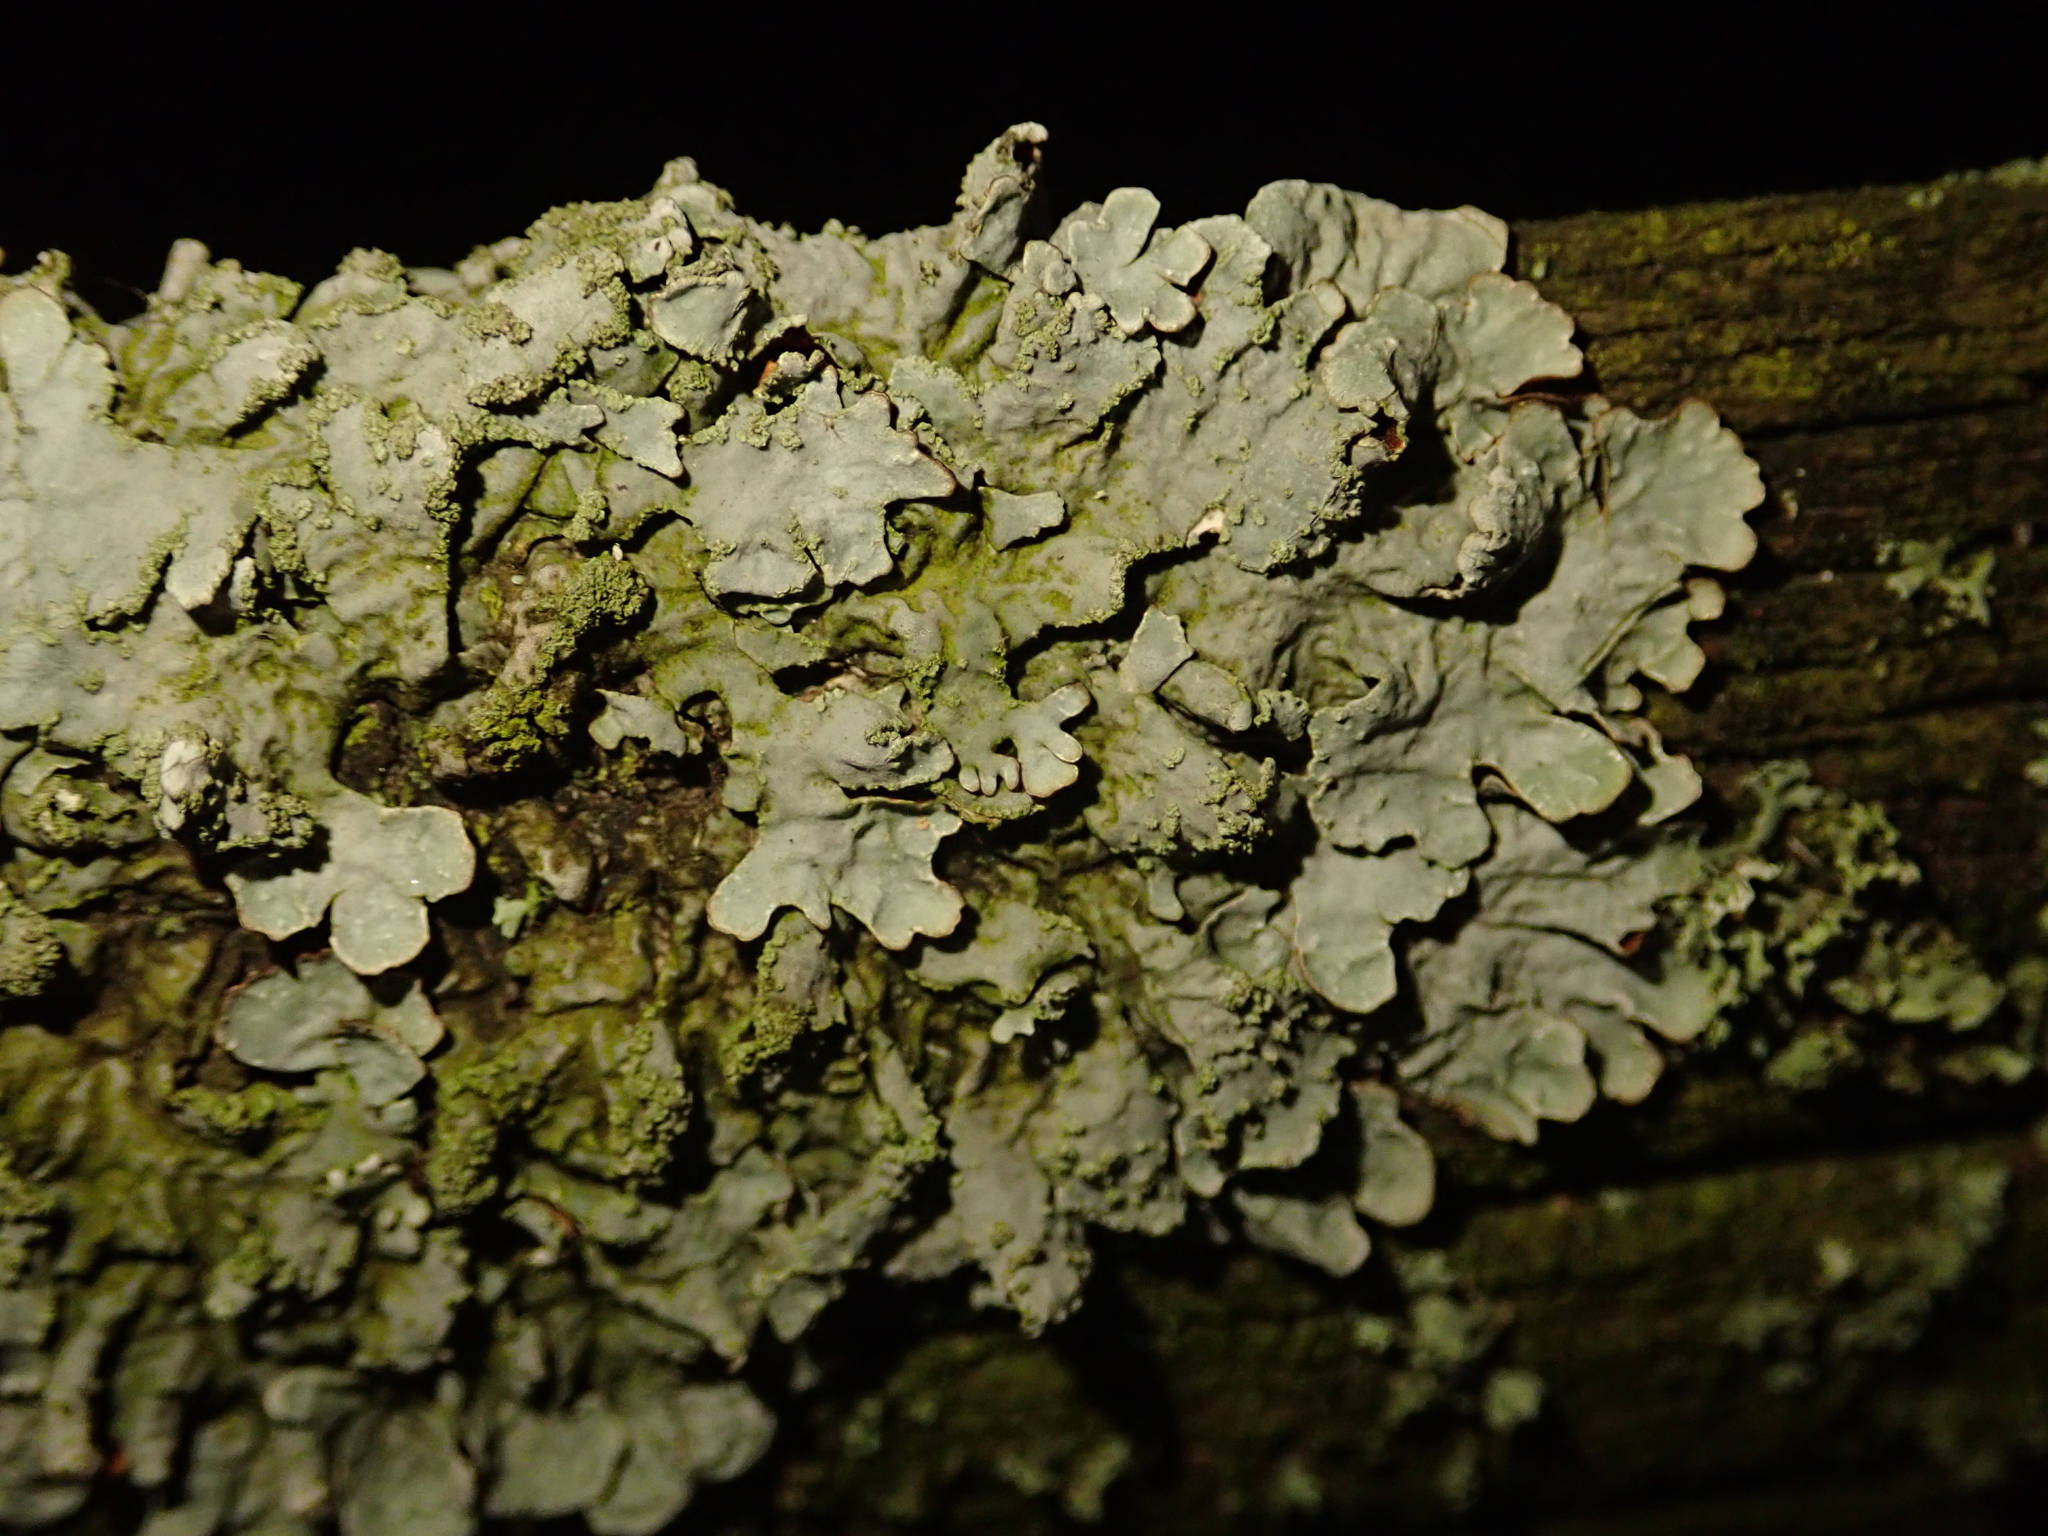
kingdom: Fungi
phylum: Ascomycota
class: Lecanoromycetes
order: Lecanorales
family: Parmeliaceae
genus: Parmelia
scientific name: Parmelia sulcata
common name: Netted shield lichen
